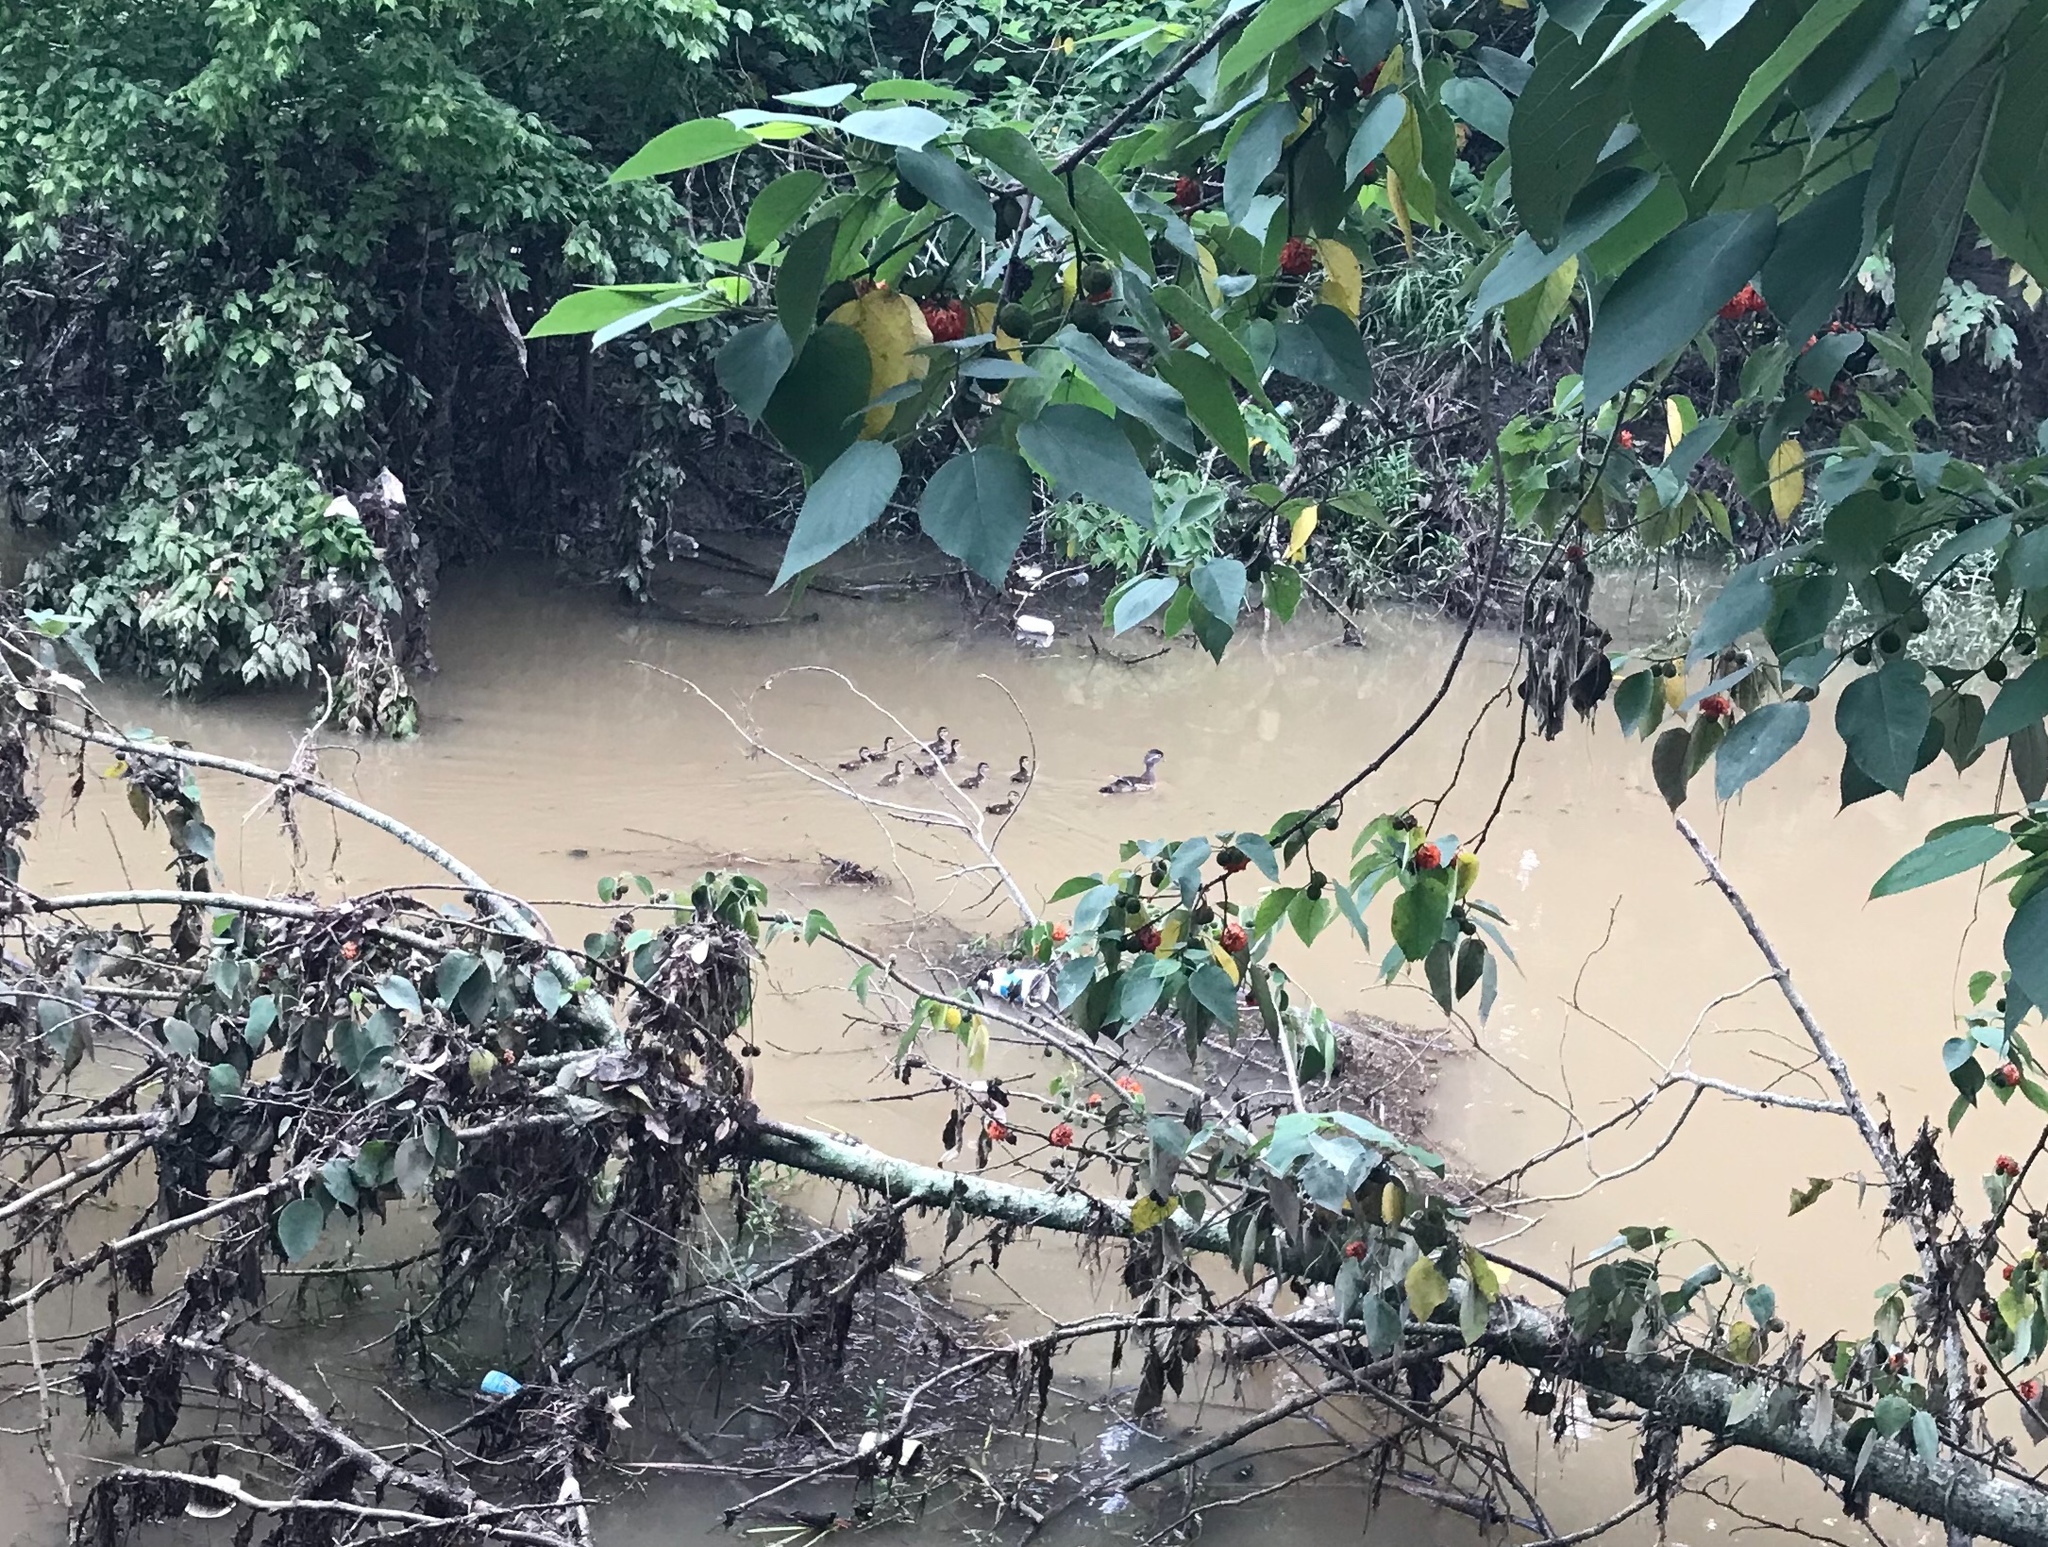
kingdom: Animalia
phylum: Chordata
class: Aves
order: Anseriformes
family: Anatidae
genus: Aix
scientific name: Aix sponsa
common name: Wood duck
